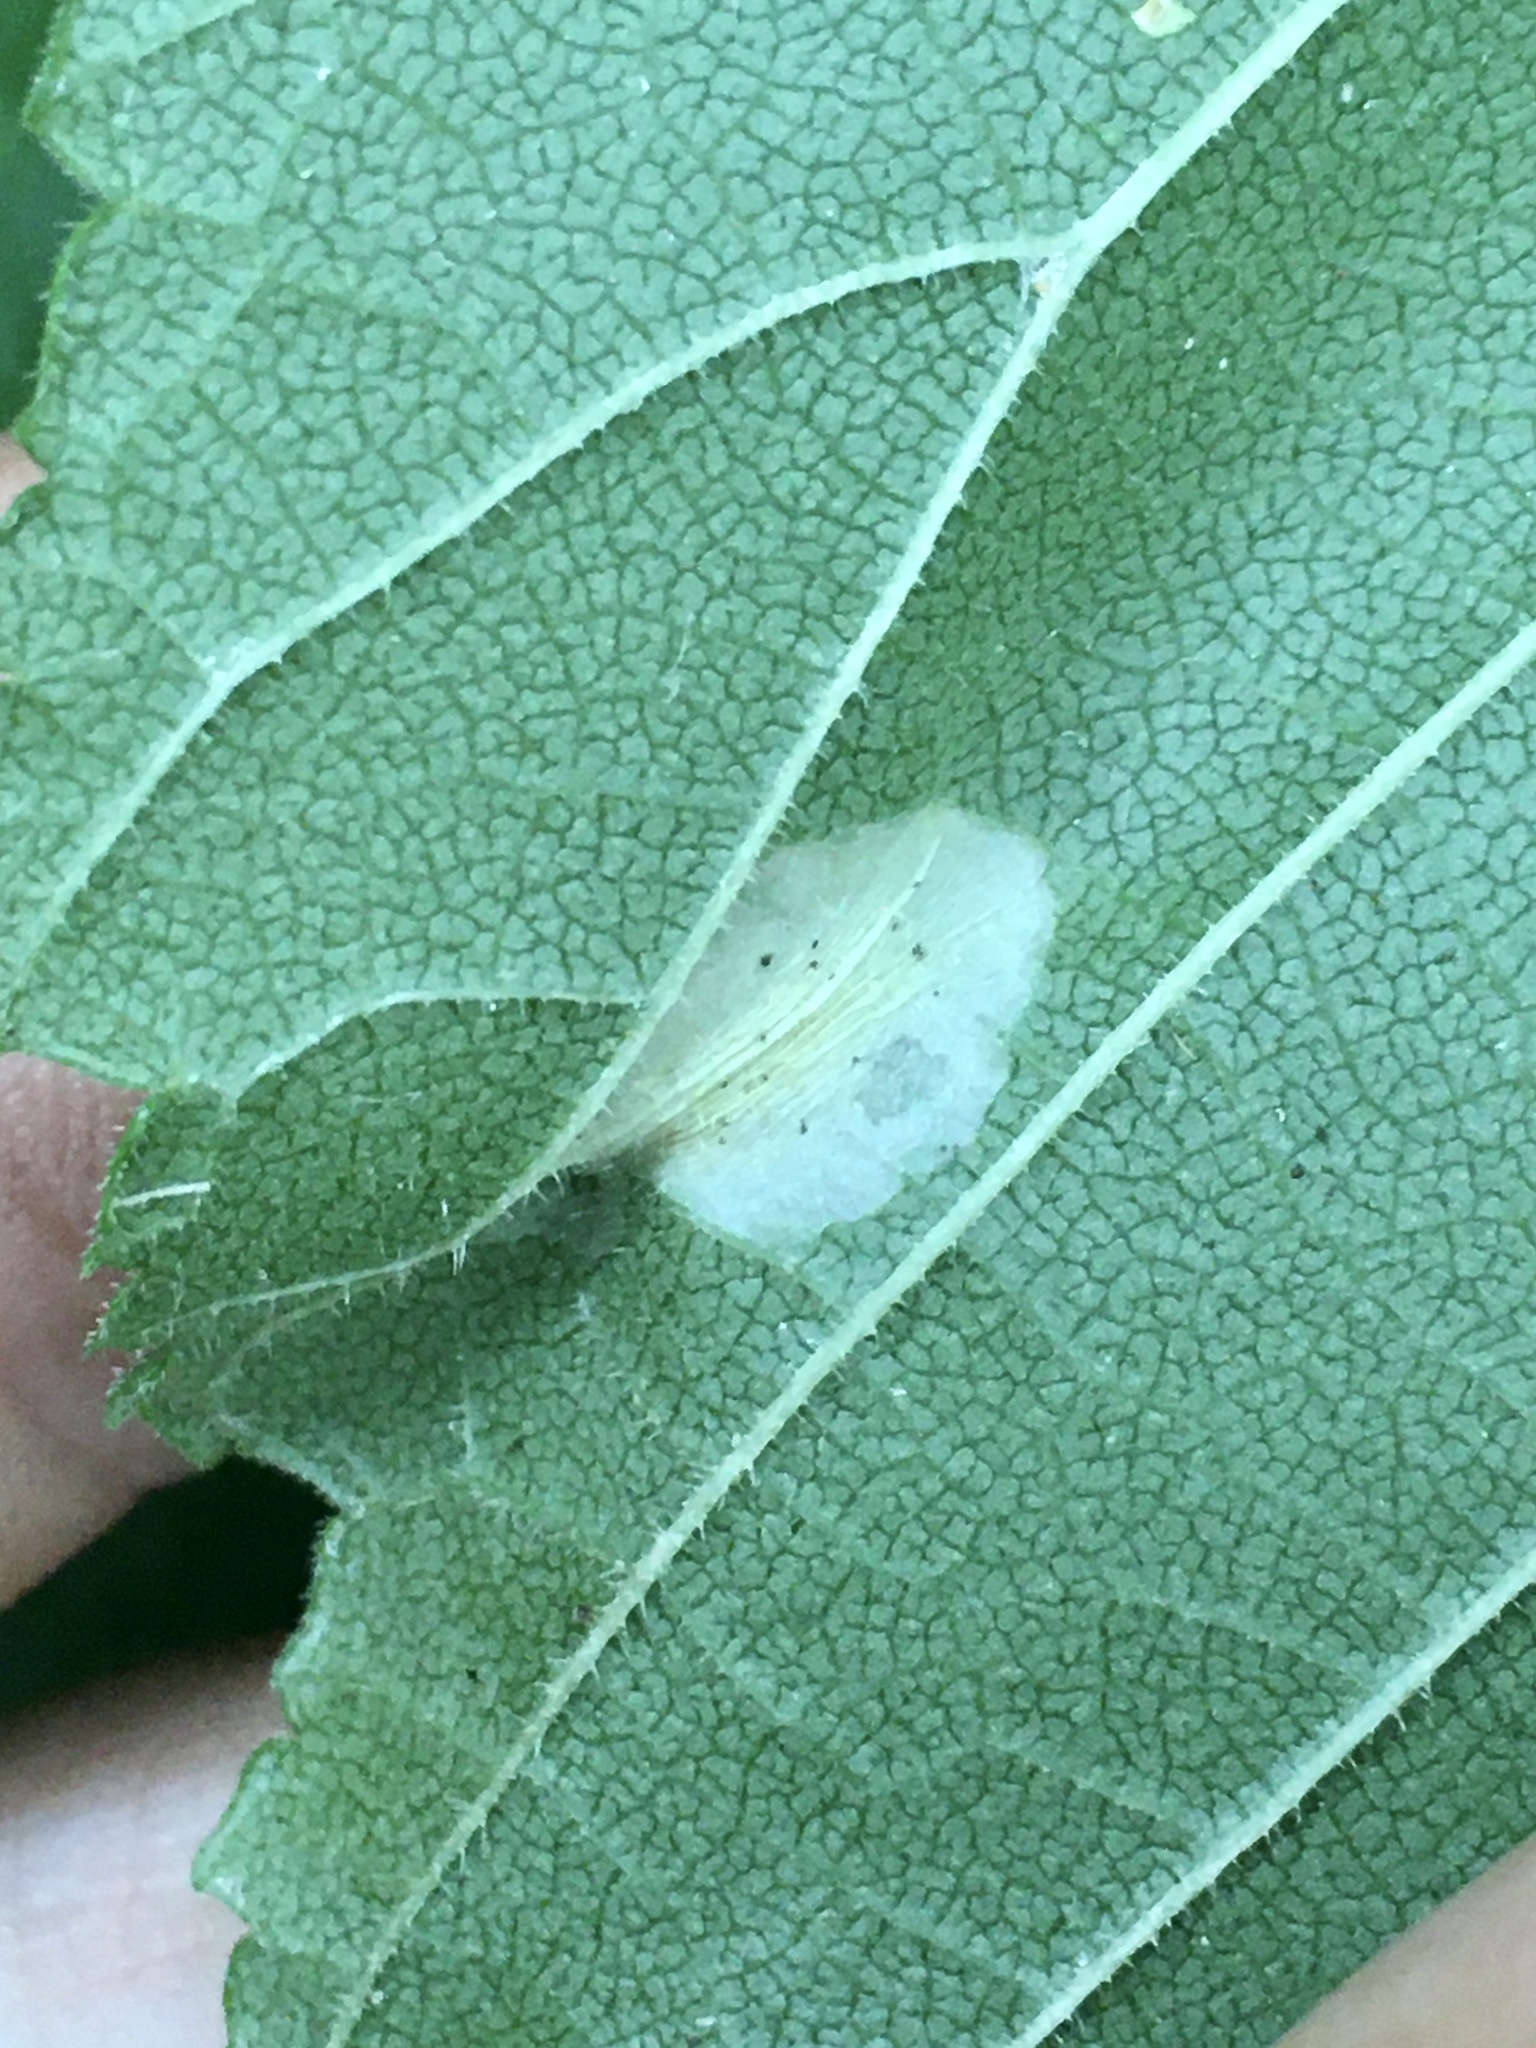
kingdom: Animalia
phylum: Arthropoda
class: Insecta
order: Lepidoptera
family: Gracillariidae
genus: Phyllonorycter
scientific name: Phyllonorycter argentinotella
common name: Golden elm leafminer
